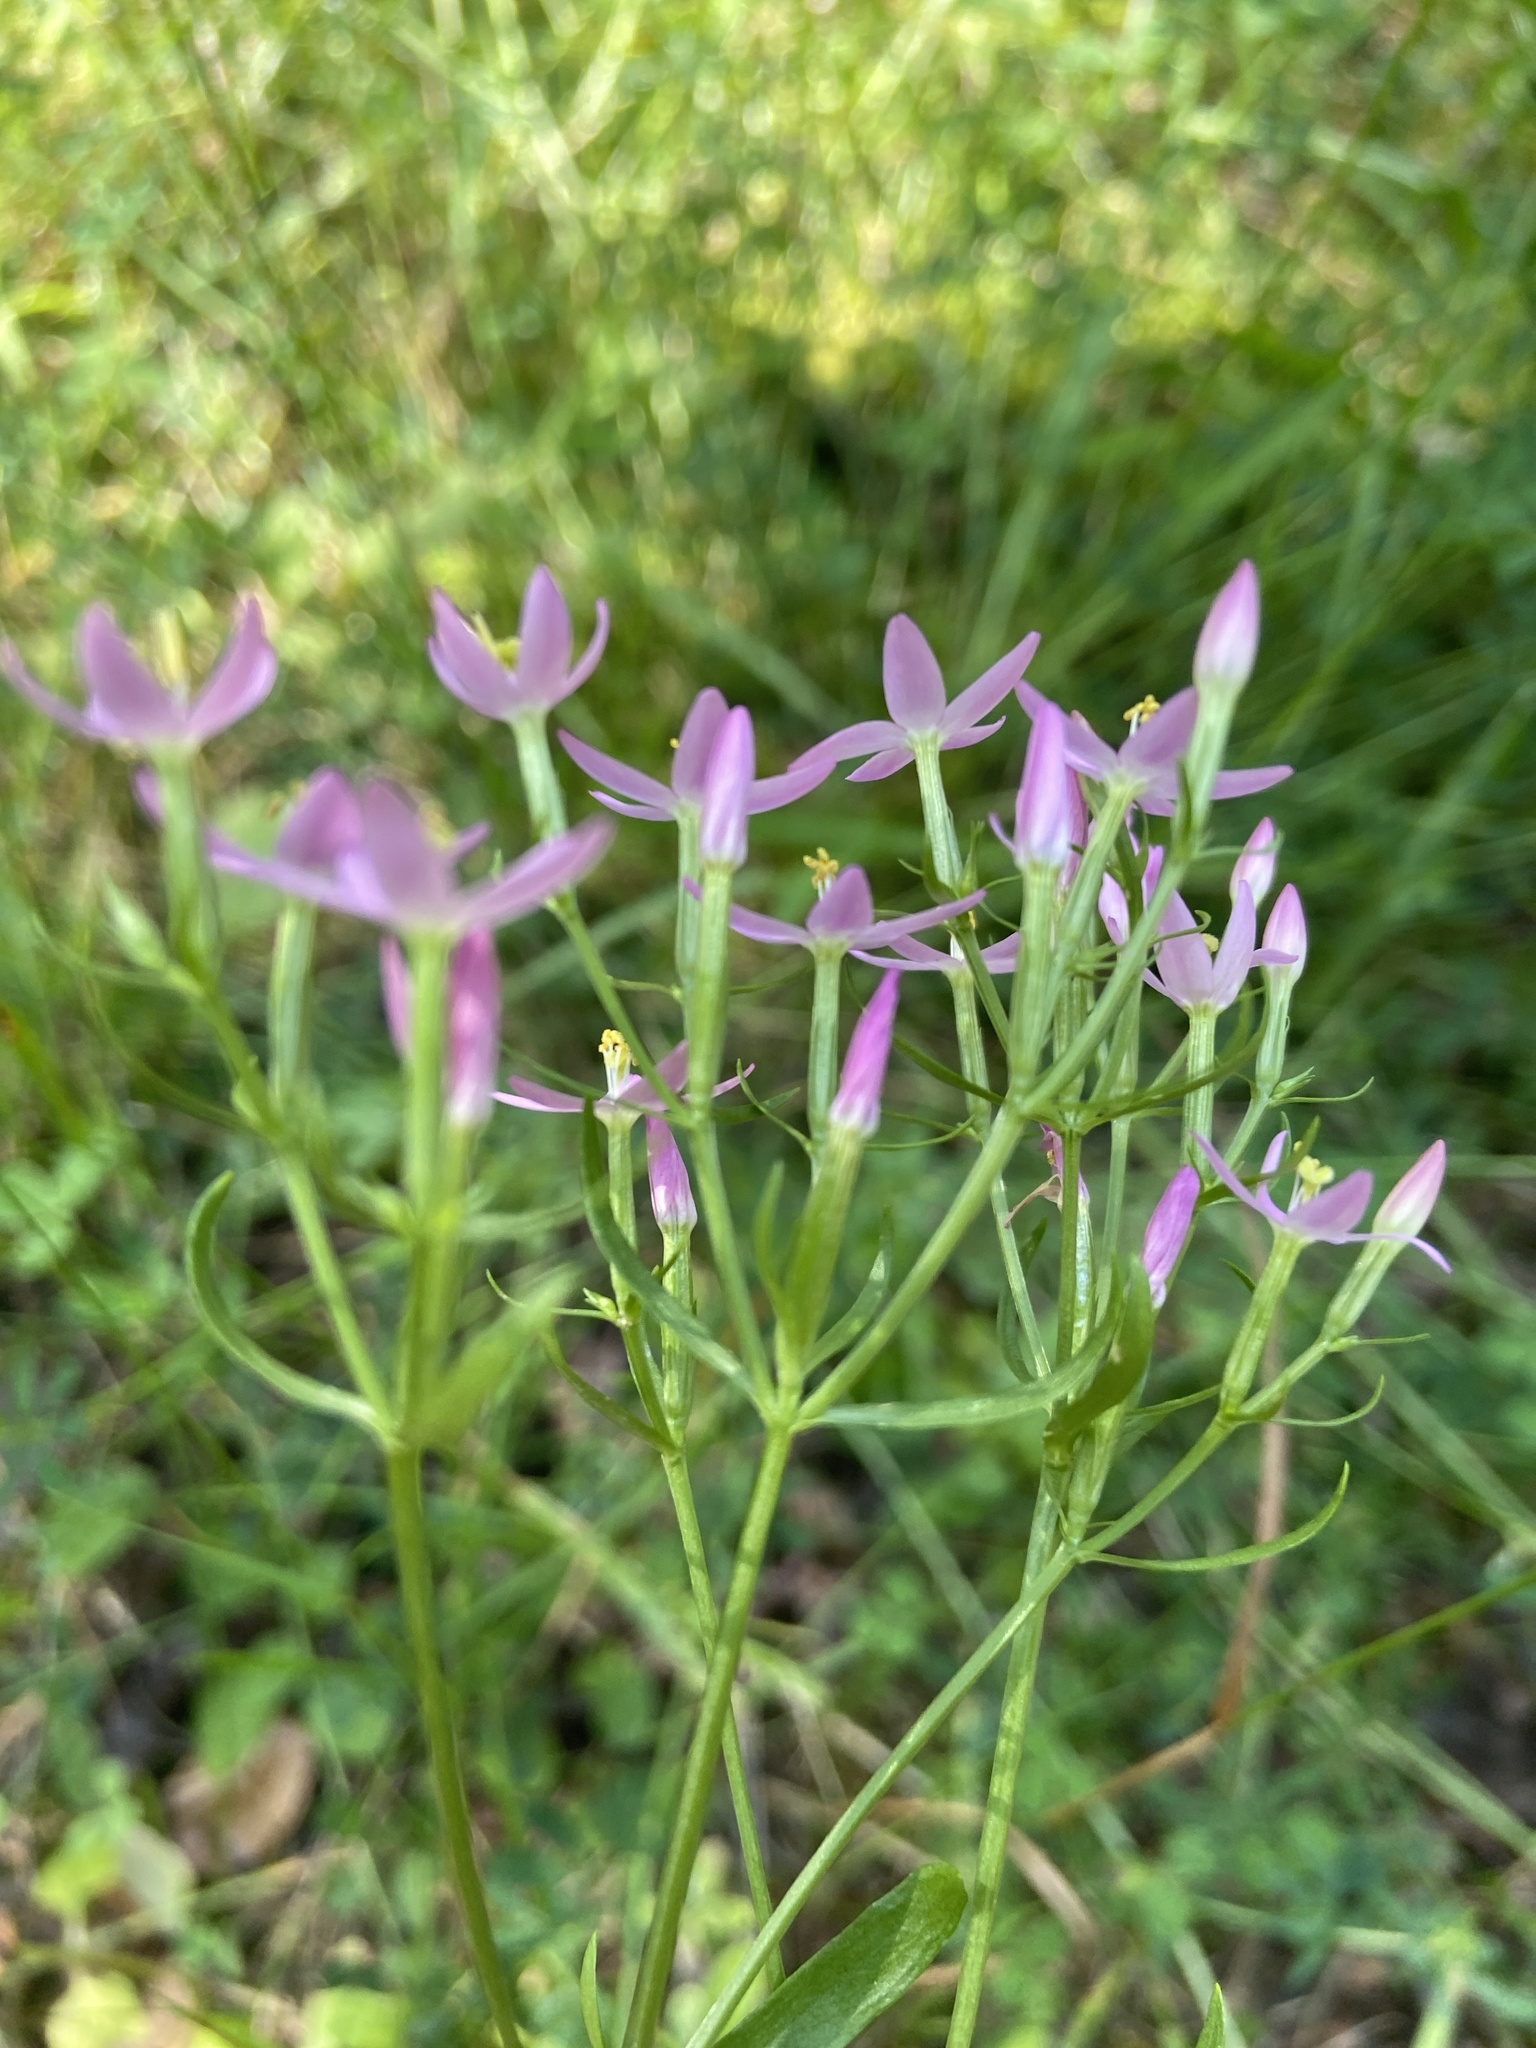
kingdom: Plantae
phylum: Tracheophyta
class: Magnoliopsida
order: Gentianales
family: Gentianaceae
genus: Centaurium
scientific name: Centaurium erythraea
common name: Common centaury
